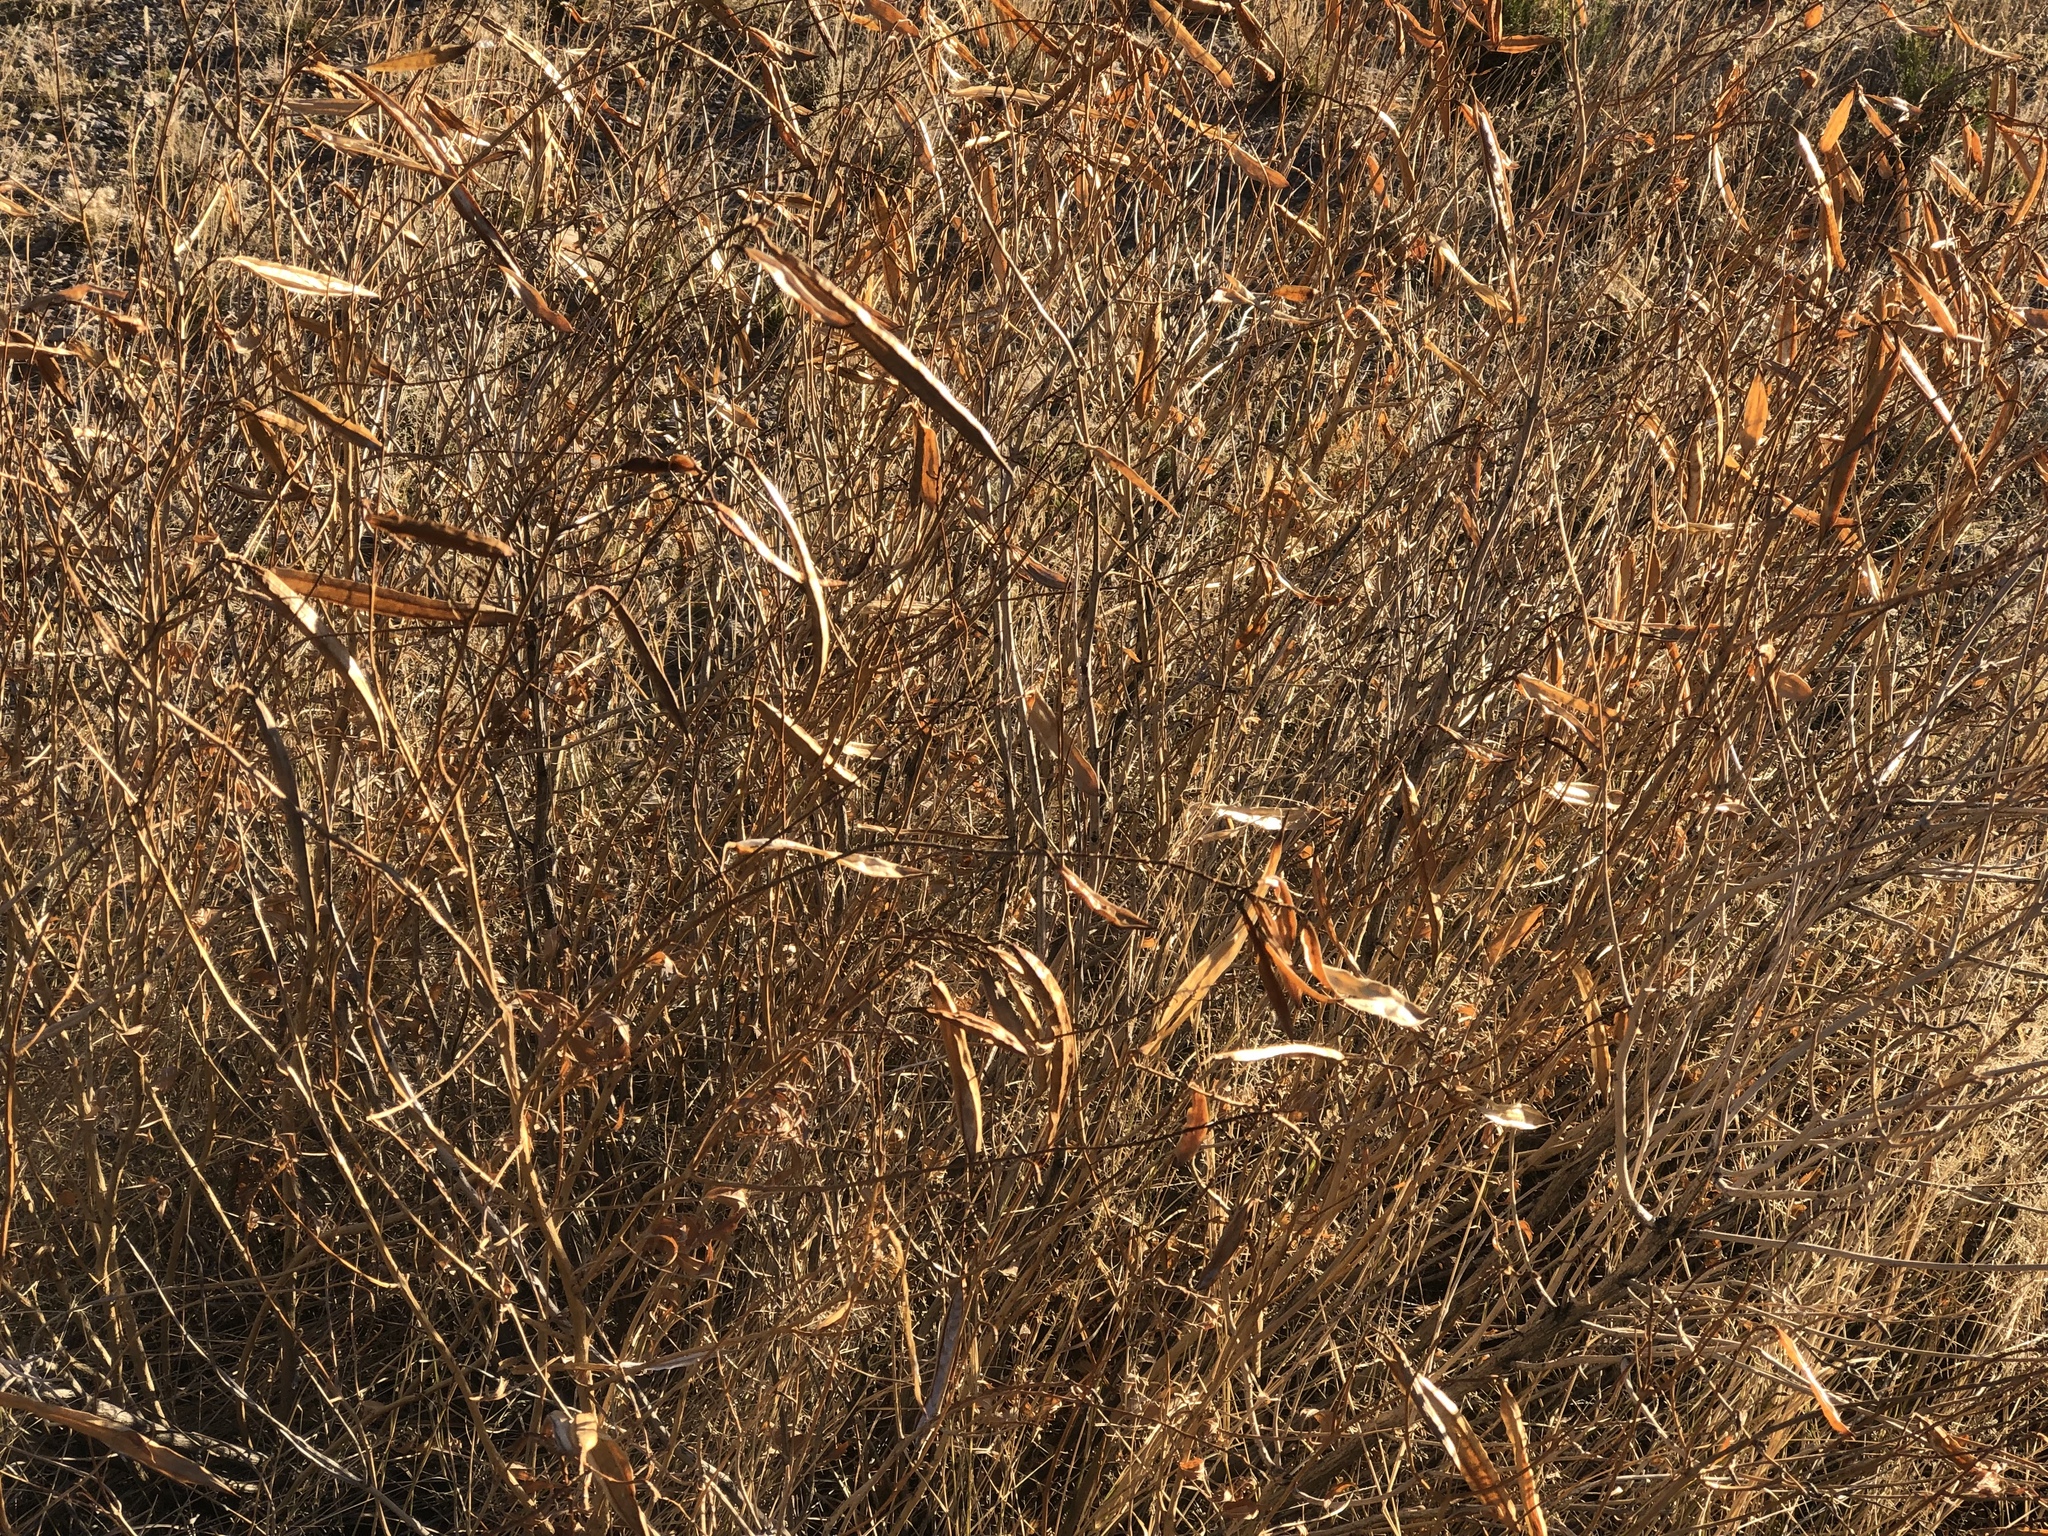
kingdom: Plantae
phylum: Tracheophyta
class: Magnoliopsida
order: Lamiales
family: Bignoniaceae
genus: Tecoma
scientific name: Tecoma stans
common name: Yellow trumpetbush
